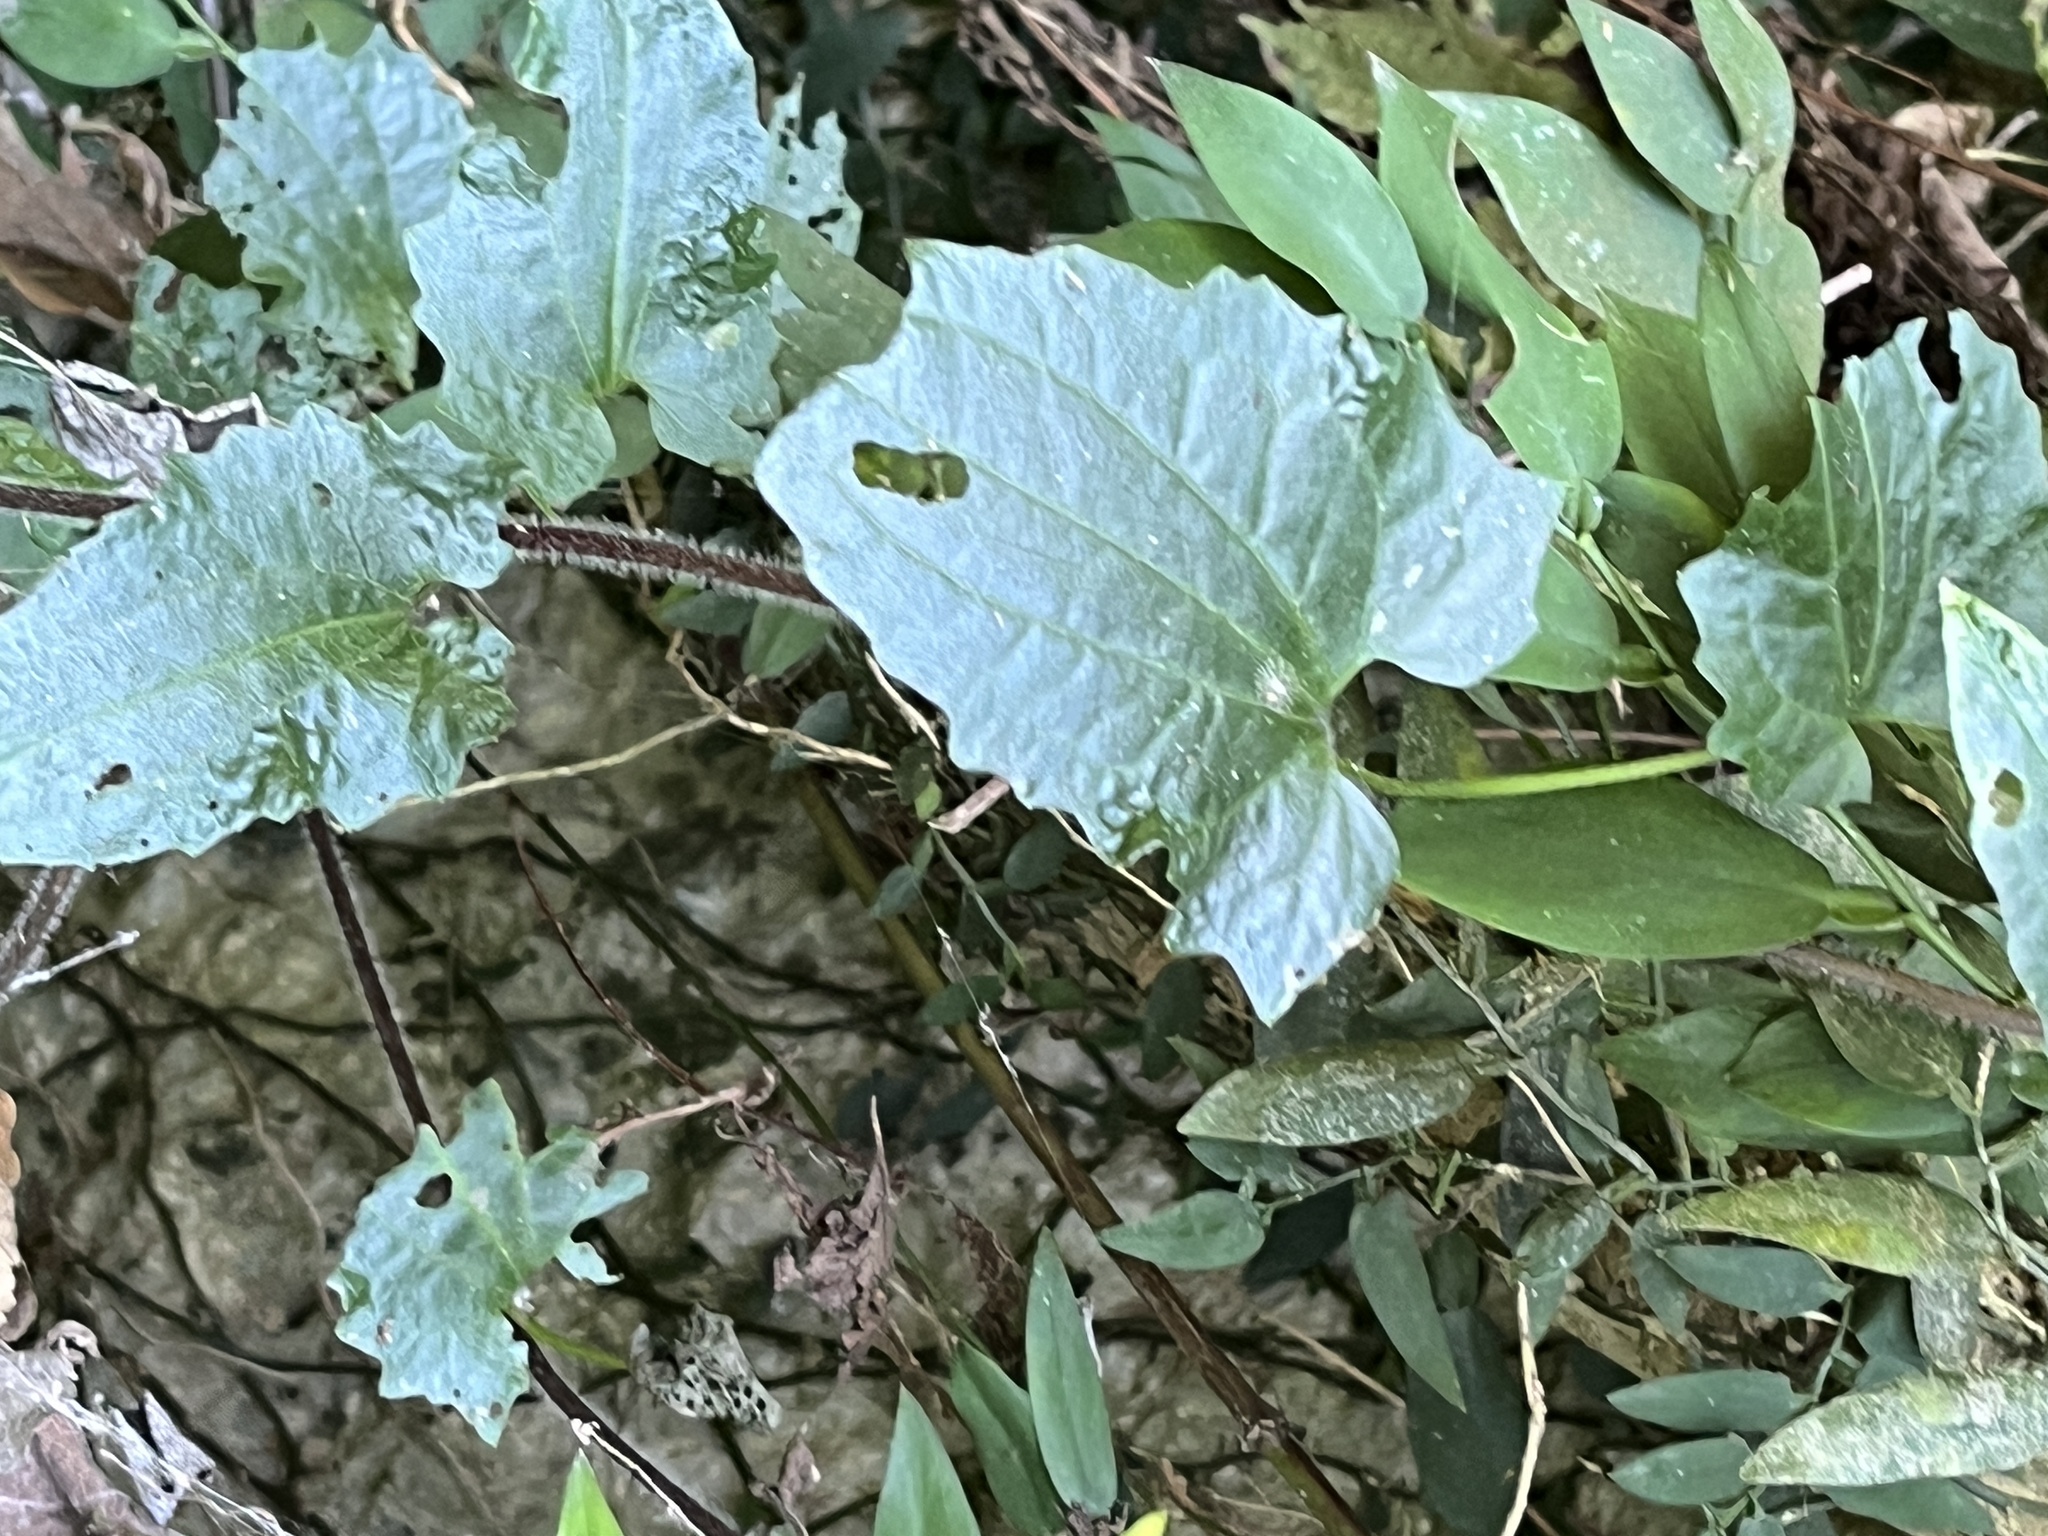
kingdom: Plantae
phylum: Tracheophyta
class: Magnoliopsida
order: Asterales
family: Asteraceae
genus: Mikania
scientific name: Mikania micrantha
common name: Mile-a-minute
